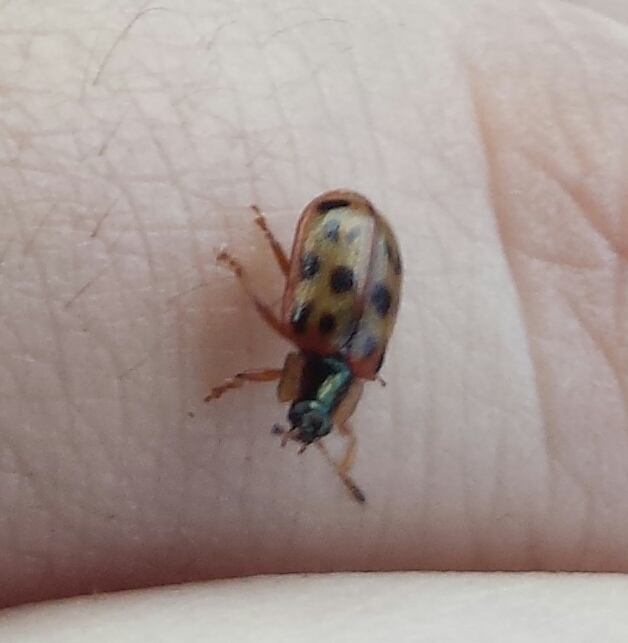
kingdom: Animalia
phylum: Arthropoda
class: Insecta
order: Coleoptera
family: Chrysomelidae
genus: Chrysomela
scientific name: Chrysomela mainensis
